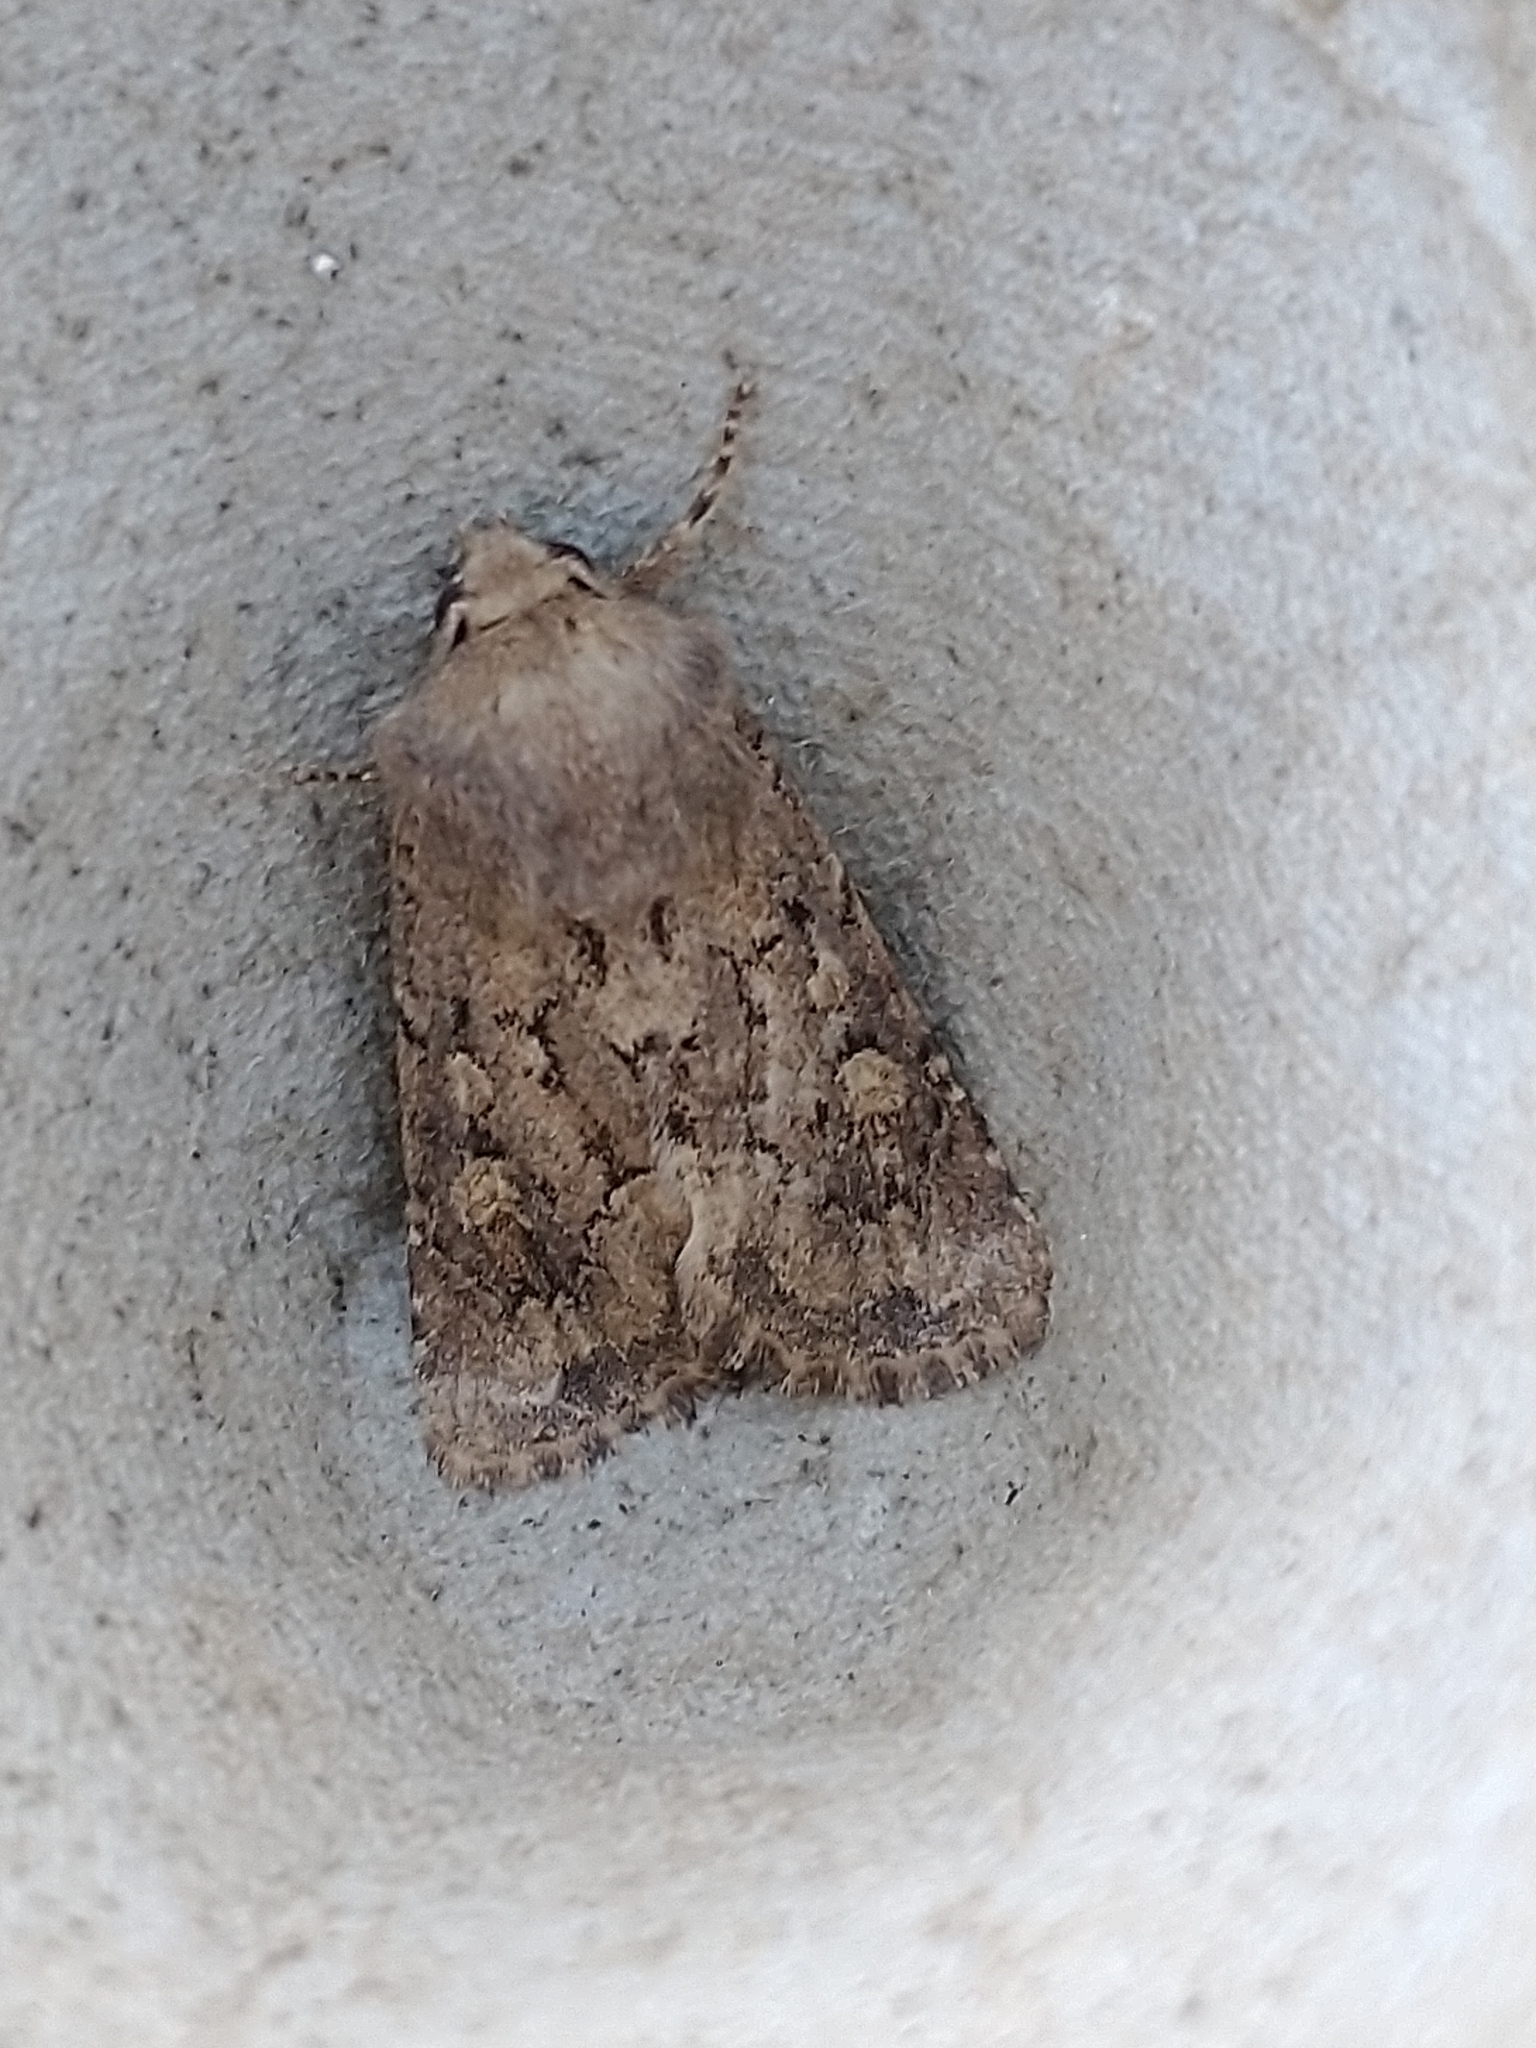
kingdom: Animalia
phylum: Arthropoda
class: Insecta
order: Lepidoptera
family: Noctuidae
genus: Luperina
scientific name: Luperina testacea
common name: Flounced rustic
